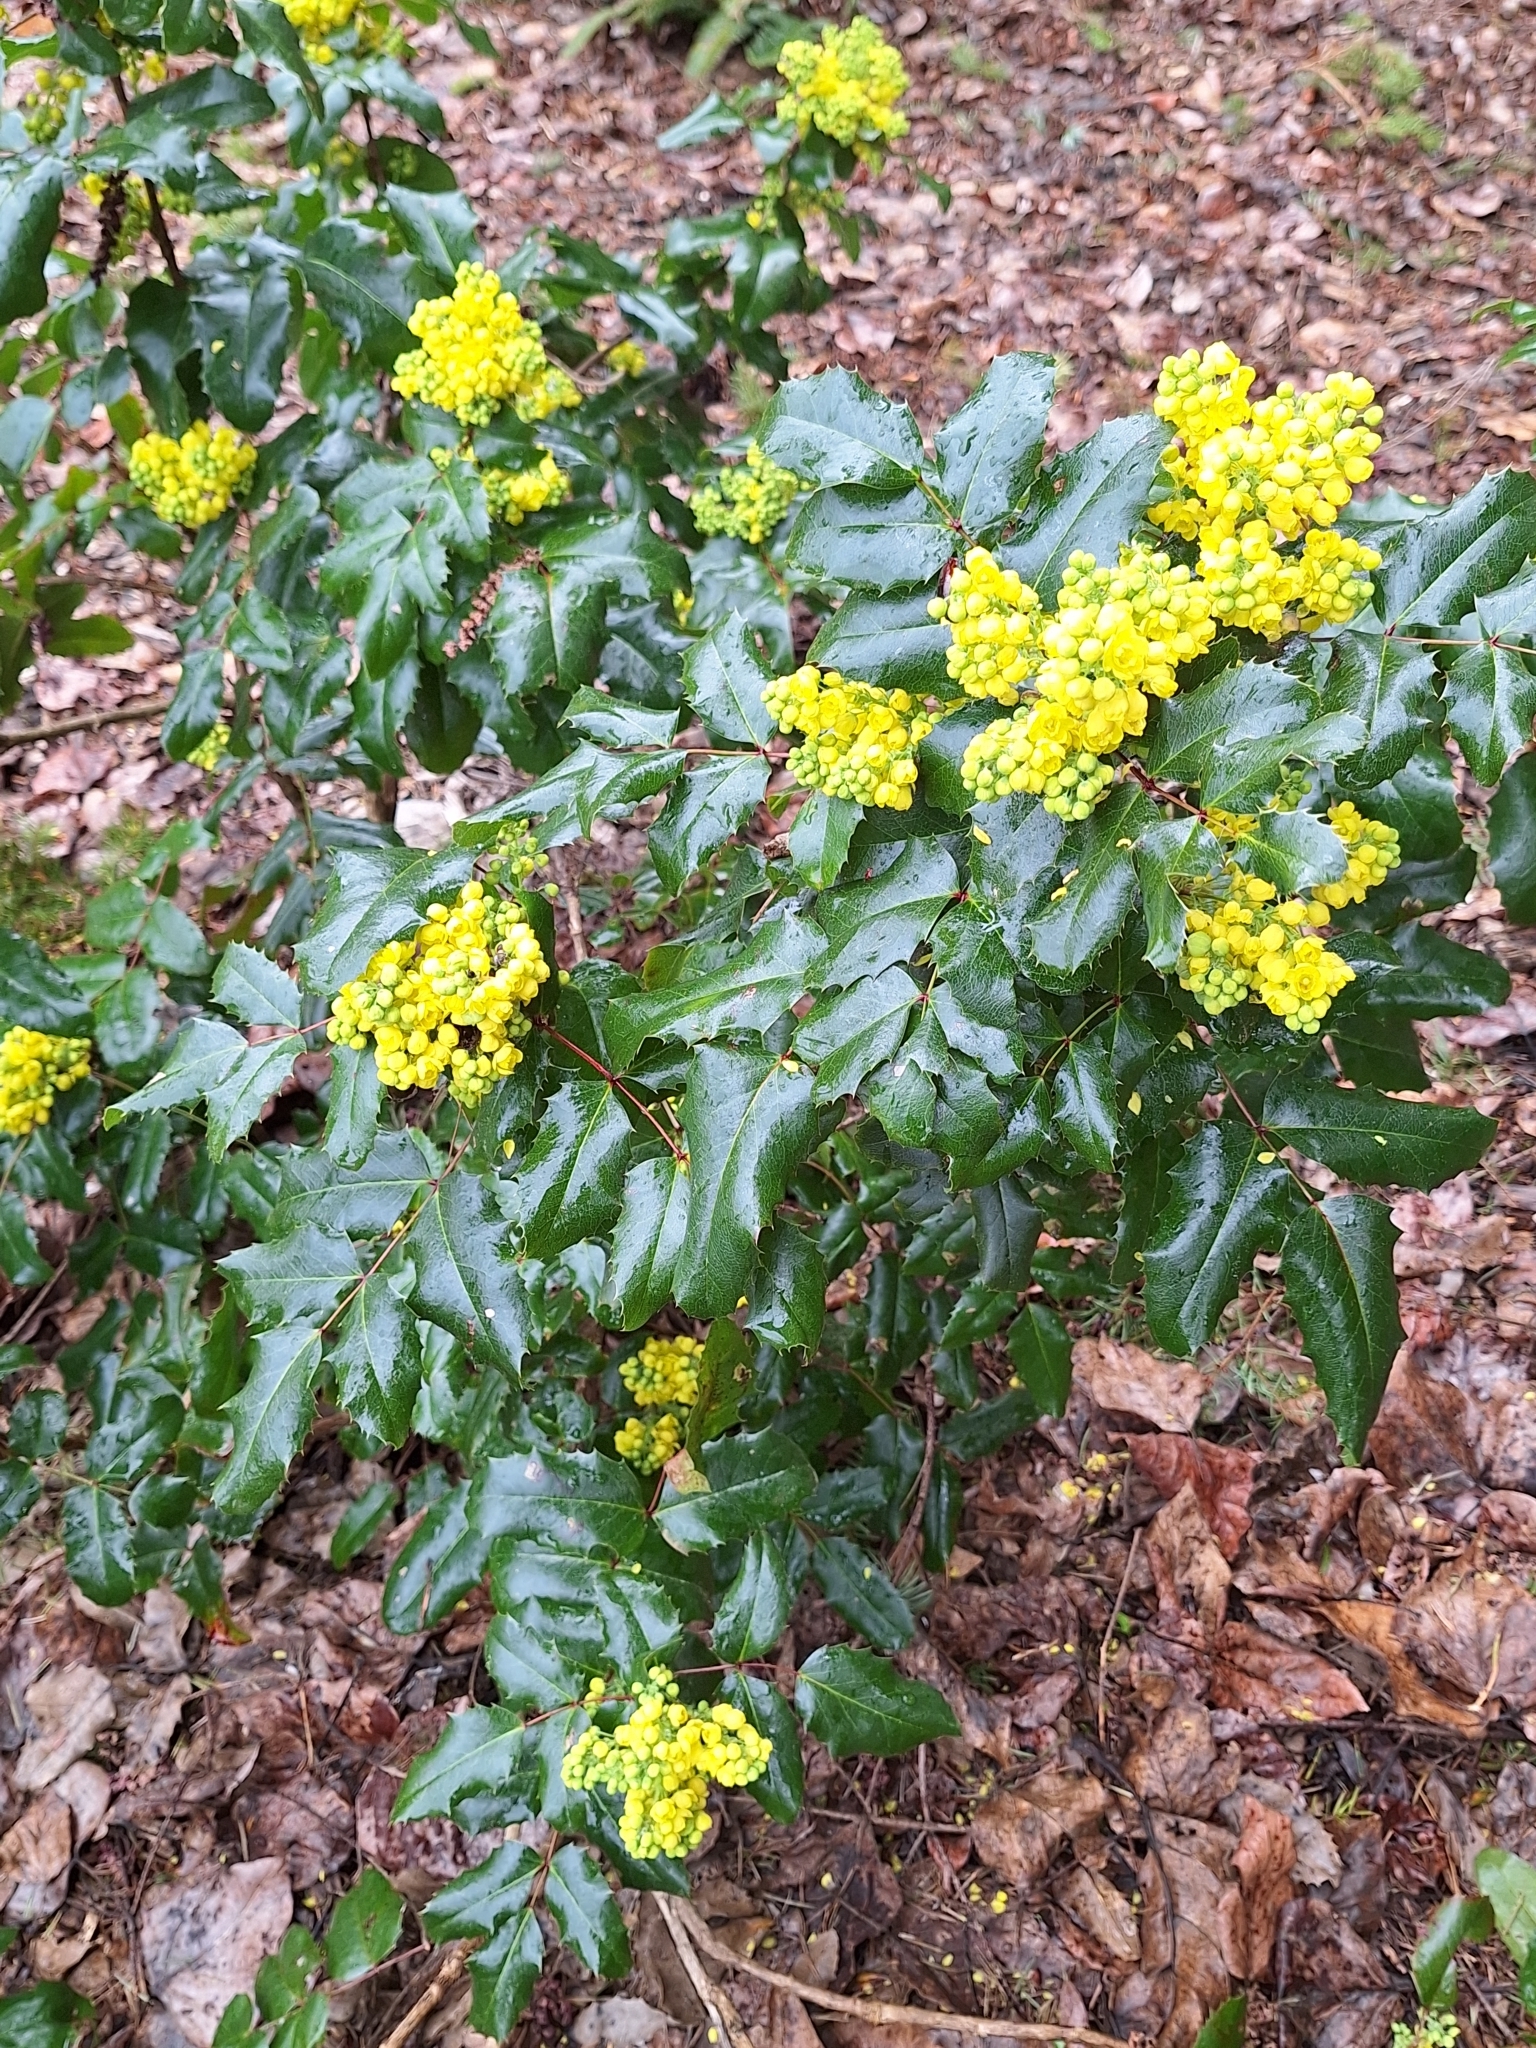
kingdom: Plantae
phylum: Tracheophyta
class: Magnoliopsida
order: Ranunculales
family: Berberidaceae
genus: Mahonia
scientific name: Mahonia aquifolium
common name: Oregon-grape
